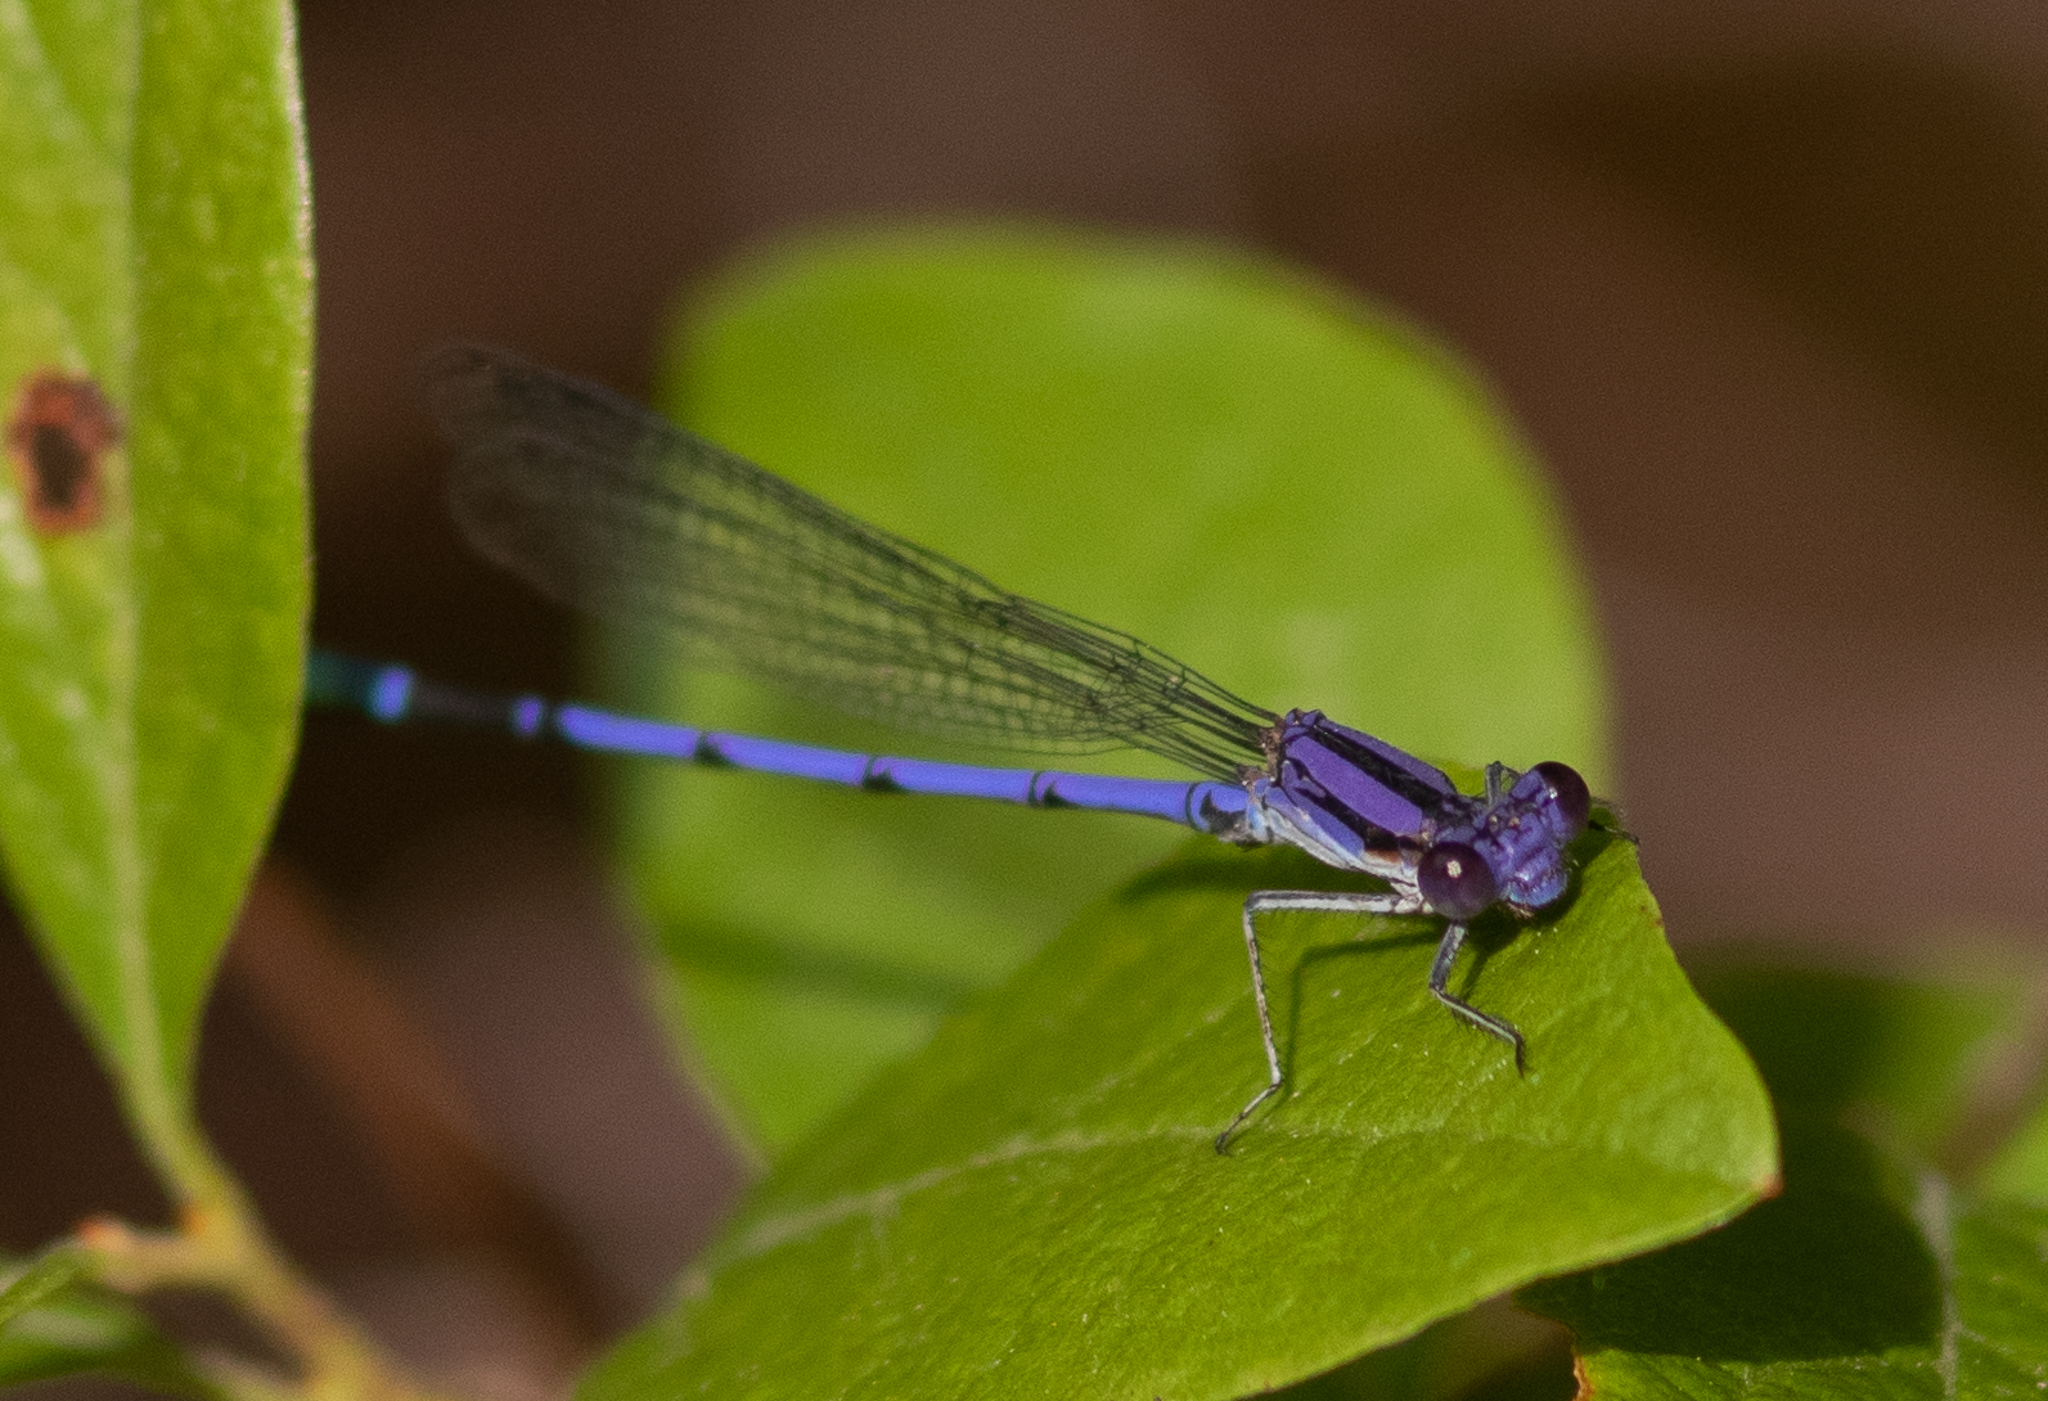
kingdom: Animalia
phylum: Arthropoda
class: Insecta
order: Odonata
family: Coenagrionidae
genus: Argia
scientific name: Argia fumipennis
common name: Variable dancer
